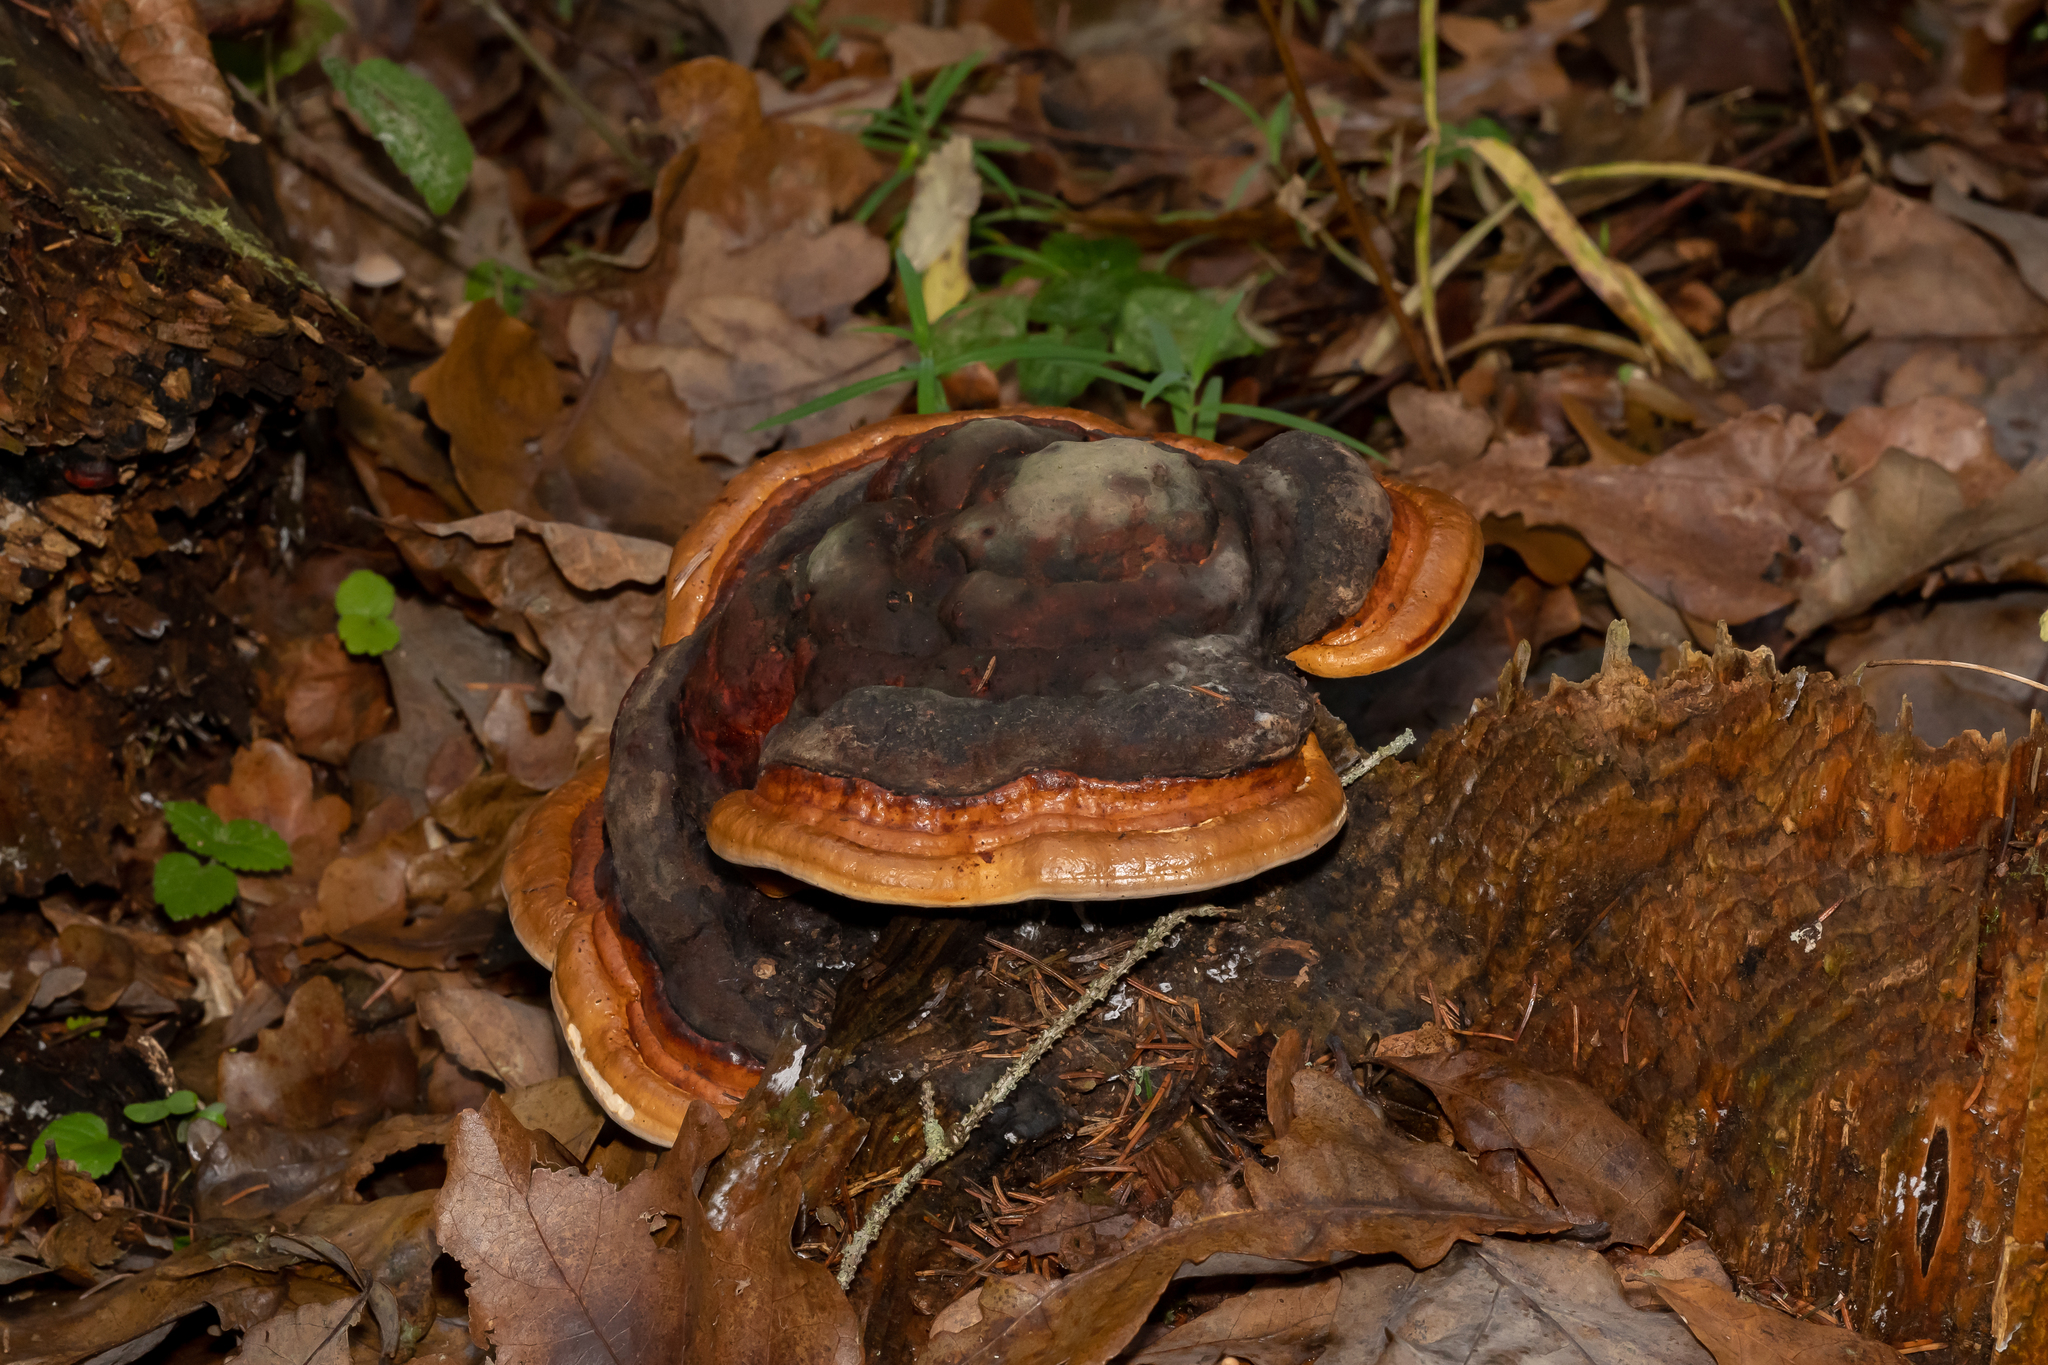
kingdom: Fungi
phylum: Basidiomycota
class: Agaricomycetes
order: Polyporales
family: Fomitopsidaceae
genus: Fomitopsis
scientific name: Fomitopsis pinicola
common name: Red-belted bracket
